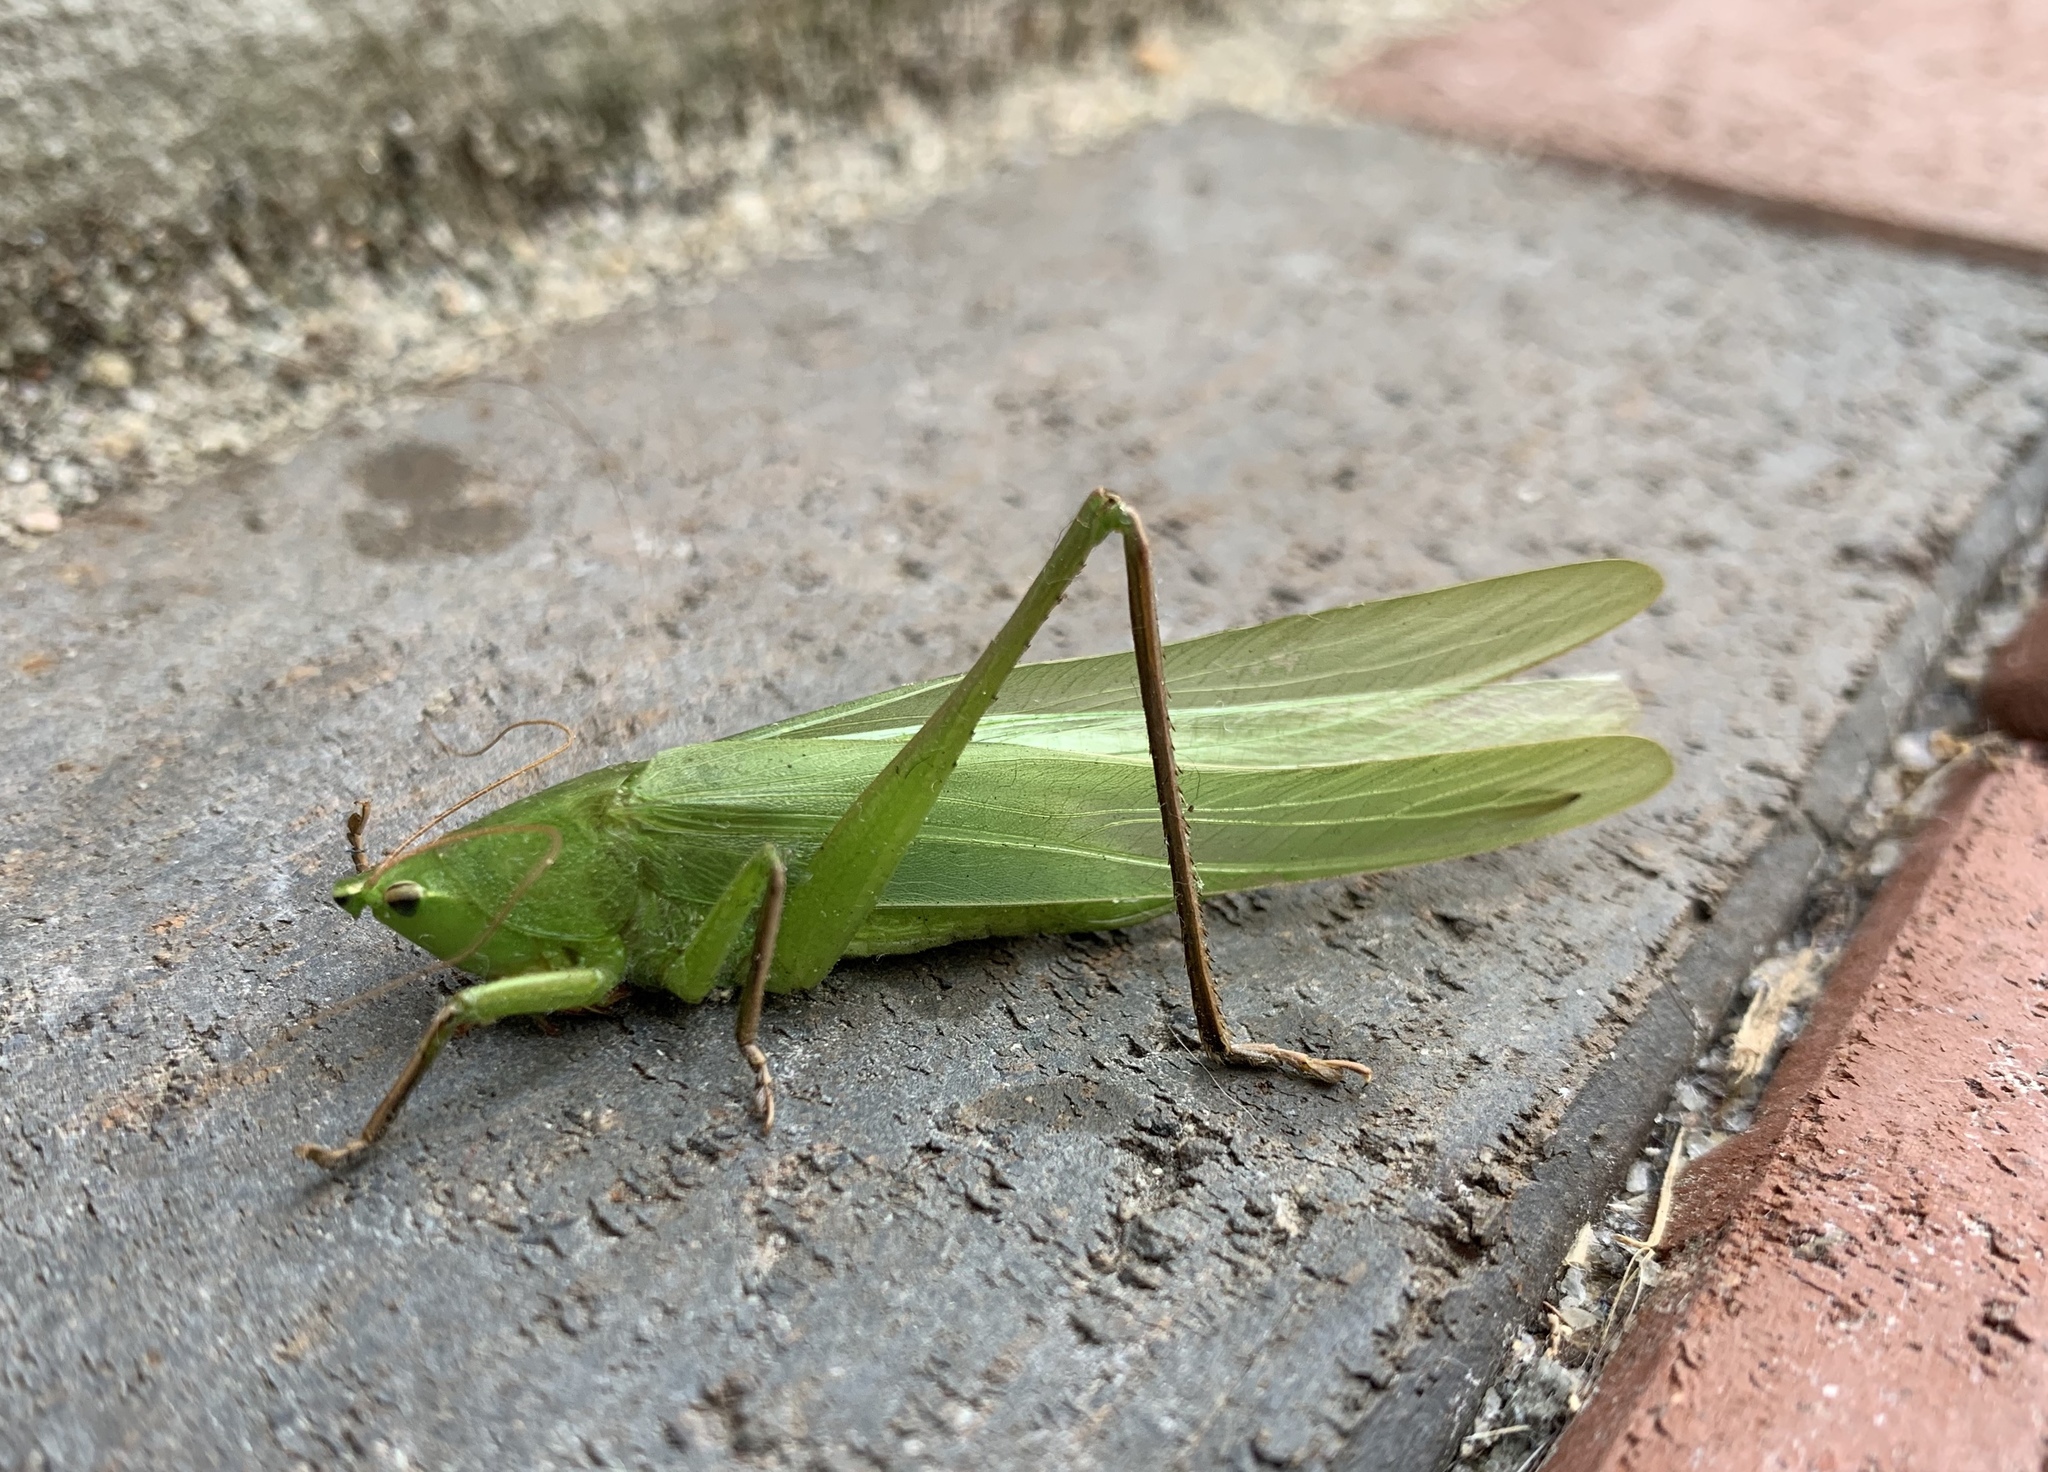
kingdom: Animalia
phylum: Arthropoda
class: Insecta
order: Orthoptera
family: Tettigoniidae
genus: Neoconocephalus
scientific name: Neoconocephalus triops
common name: Broad-tipped conehead
